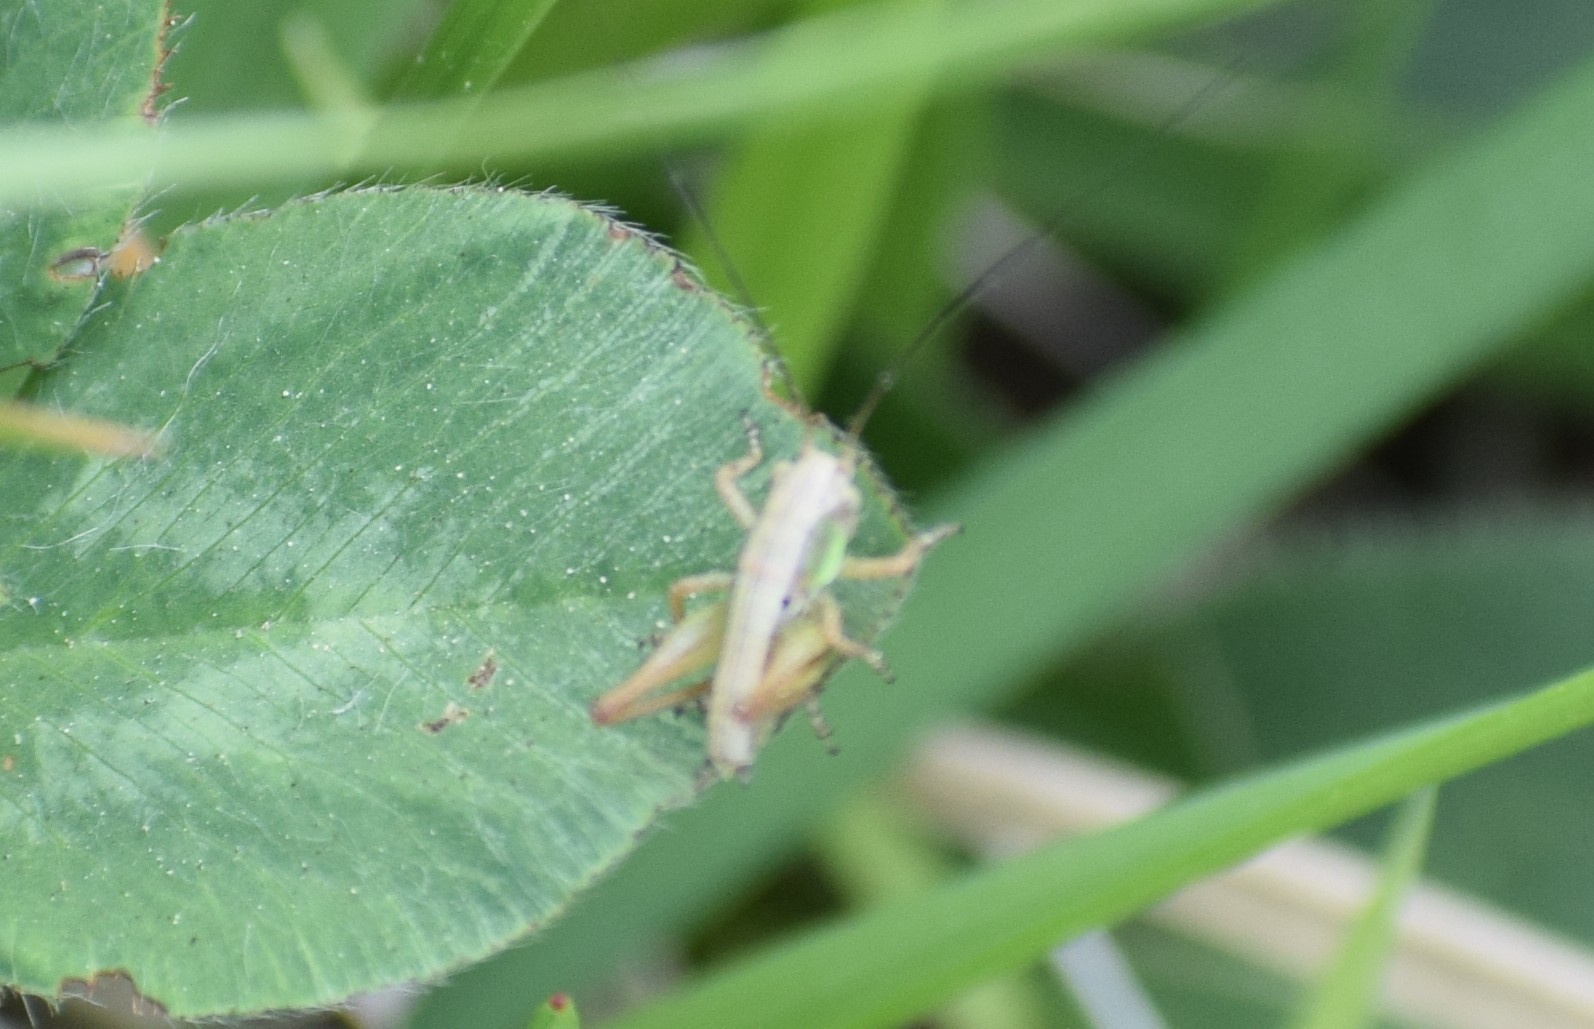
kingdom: Animalia
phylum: Arthropoda
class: Insecta
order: Orthoptera
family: Tettigoniidae
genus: Roeseliana
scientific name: Roeseliana roeselii
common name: Roesel's bush cricket
